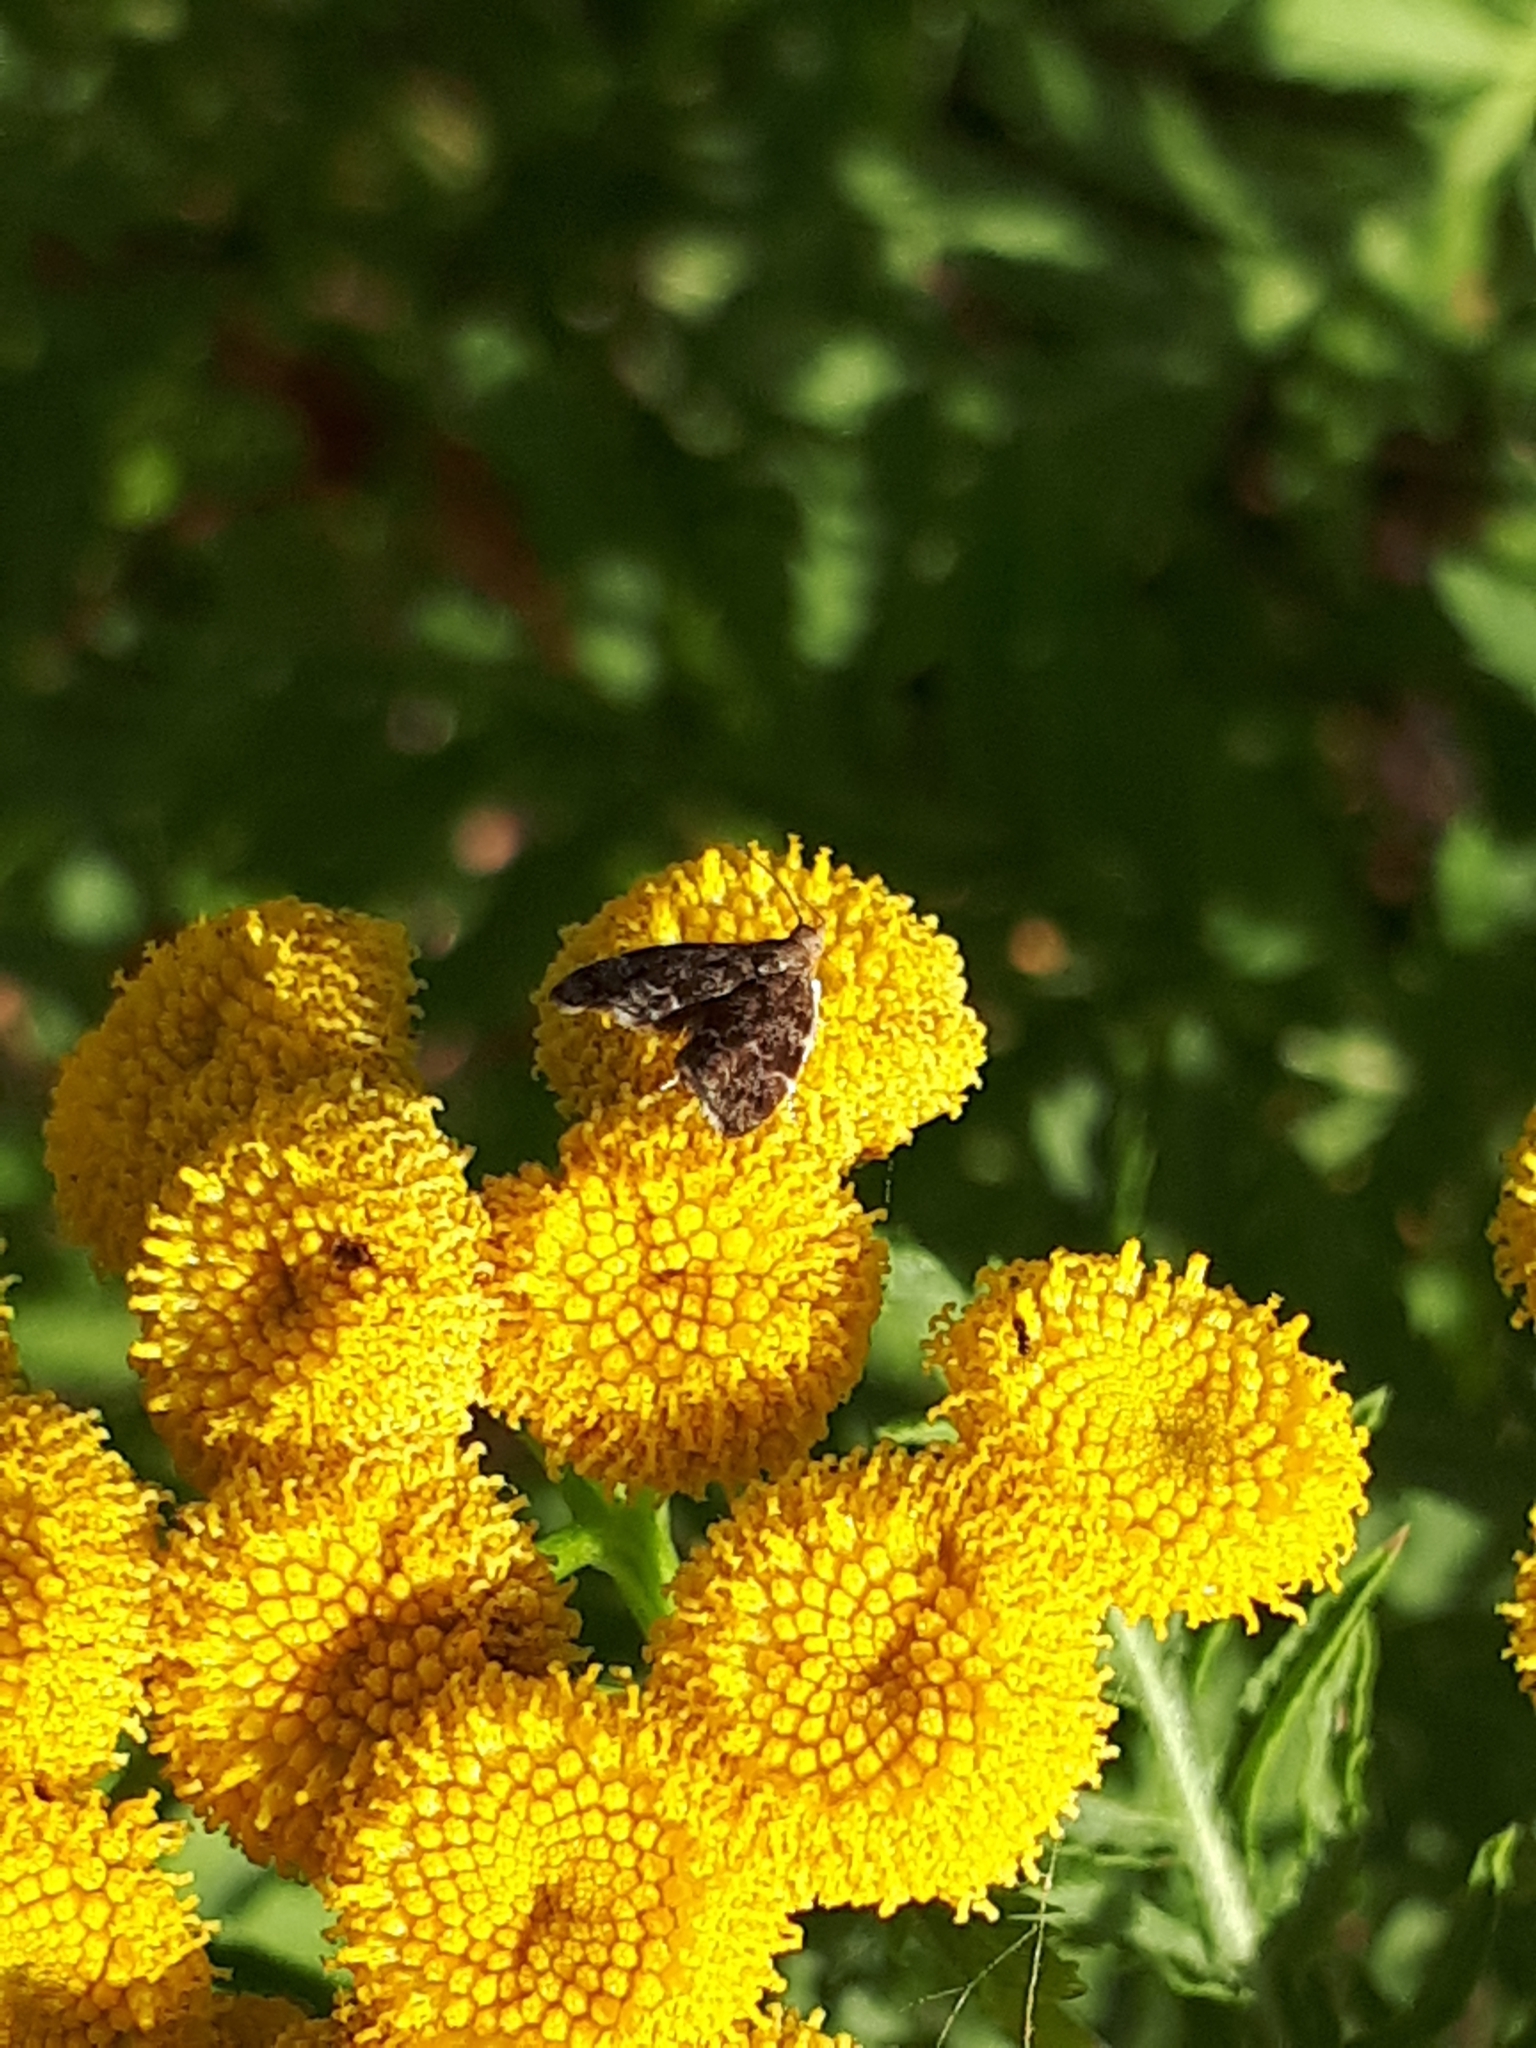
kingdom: Animalia
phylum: Arthropoda
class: Insecta
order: Lepidoptera
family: Choreutidae
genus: Anthophila
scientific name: Anthophila fabriciana
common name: Nettle-tap
